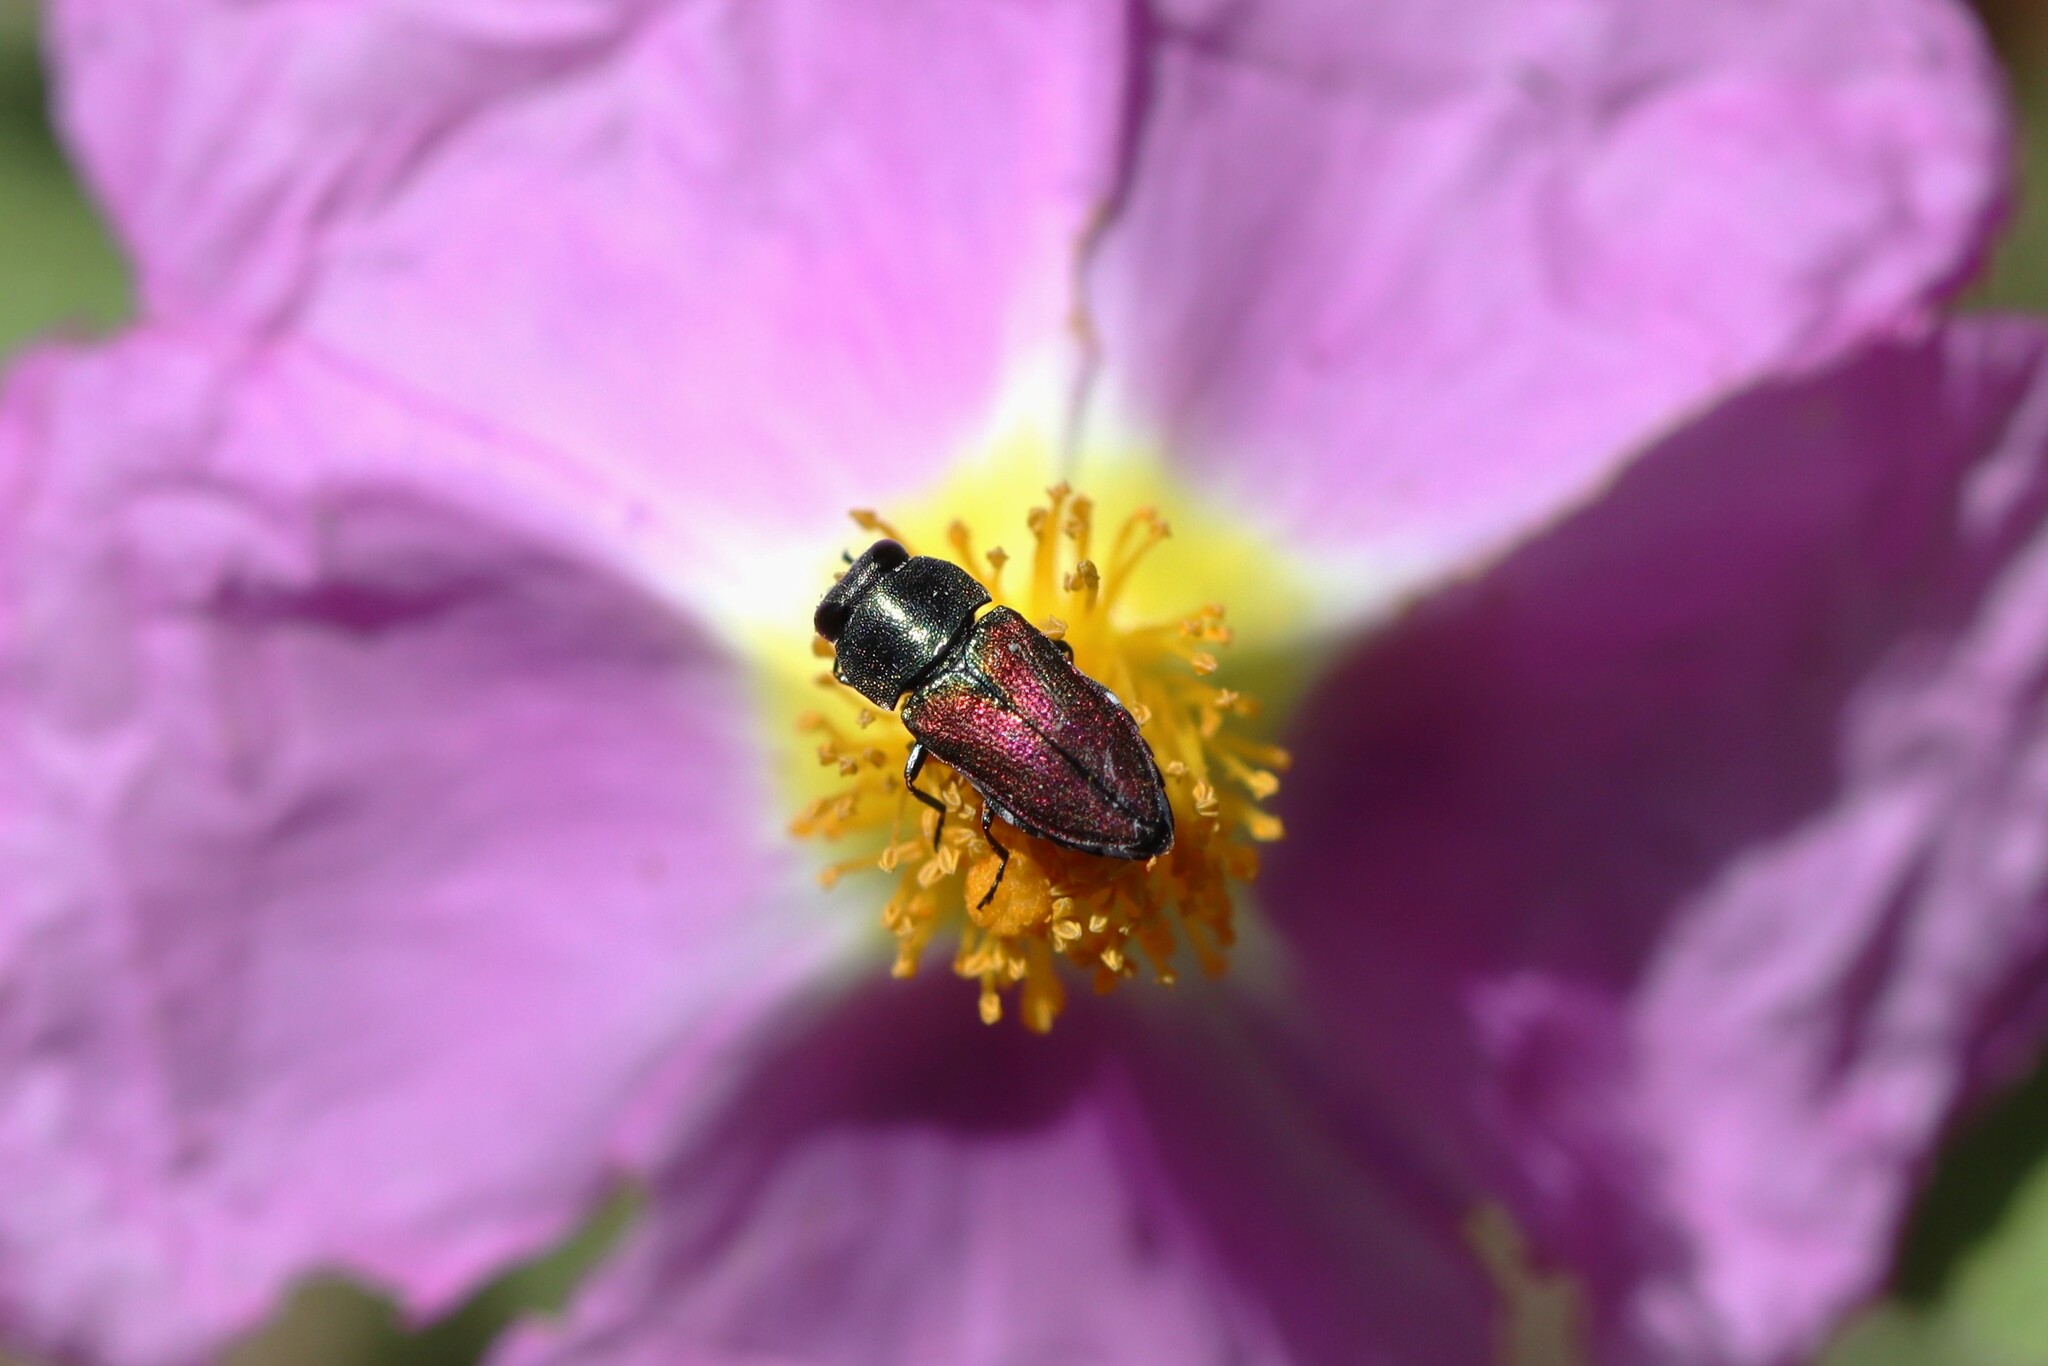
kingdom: Animalia
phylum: Arthropoda
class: Insecta
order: Coleoptera
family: Buprestidae
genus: Anthaxia
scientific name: Anthaxia praeclara
